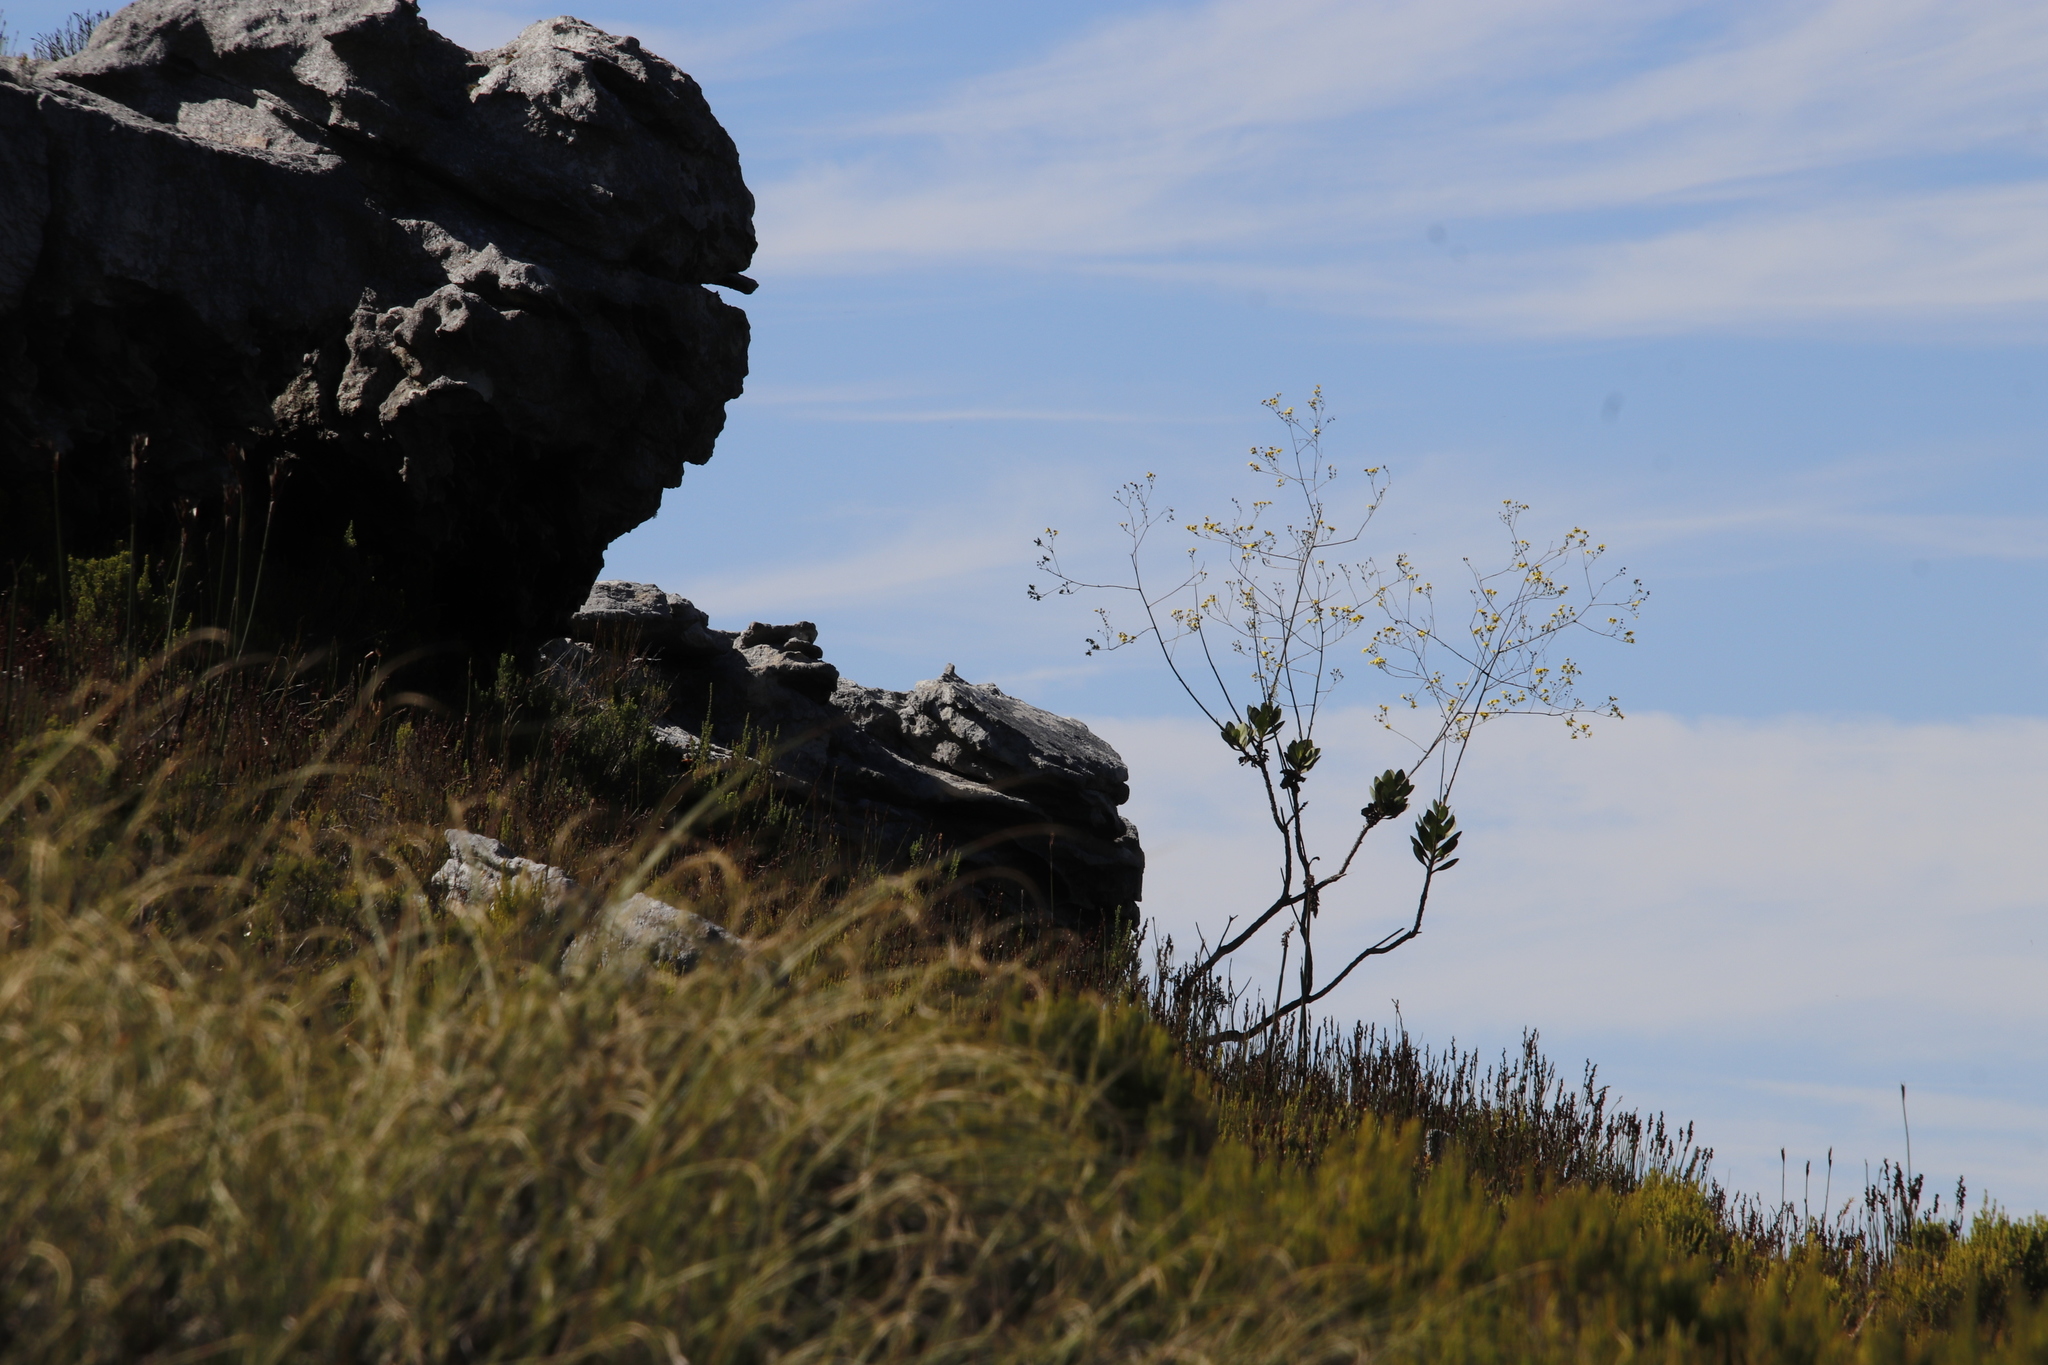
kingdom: Plantae
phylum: Tracheophyta
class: Magnoliopsida
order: Asterales
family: Asteraceae
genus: Othonna
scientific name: Othonna quinquedentata
